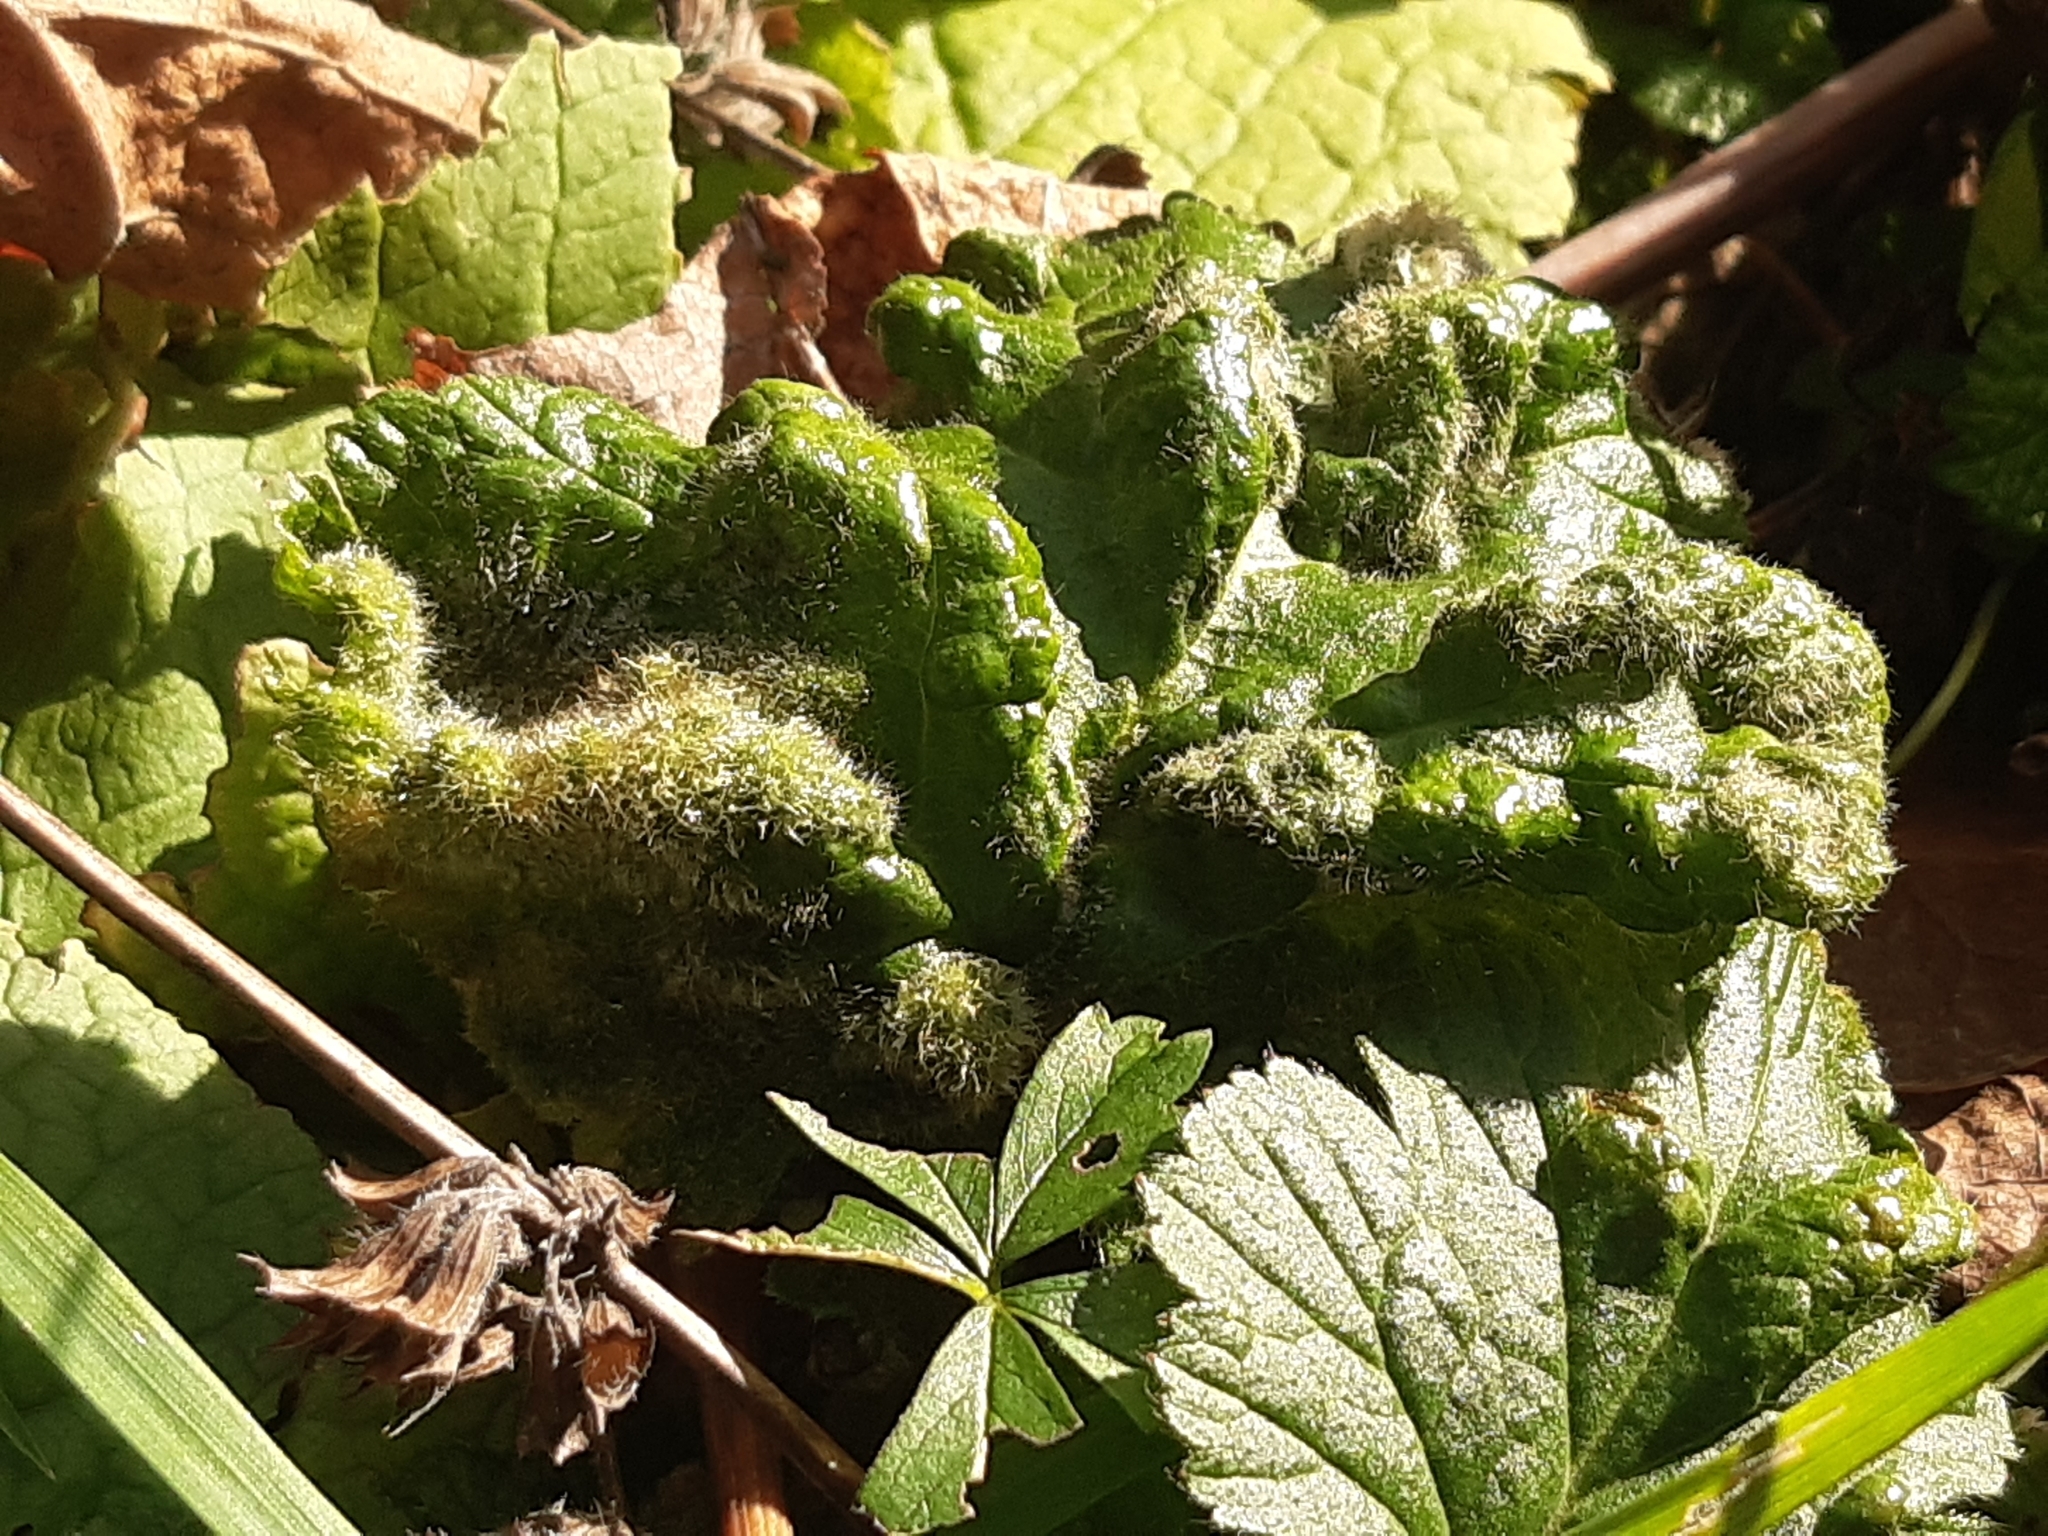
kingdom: Animalia
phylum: Arthropoda
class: Arachnida
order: Trombidiformes
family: Eriophyidae
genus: Cecidophyes
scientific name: Cecidophyes nudus
